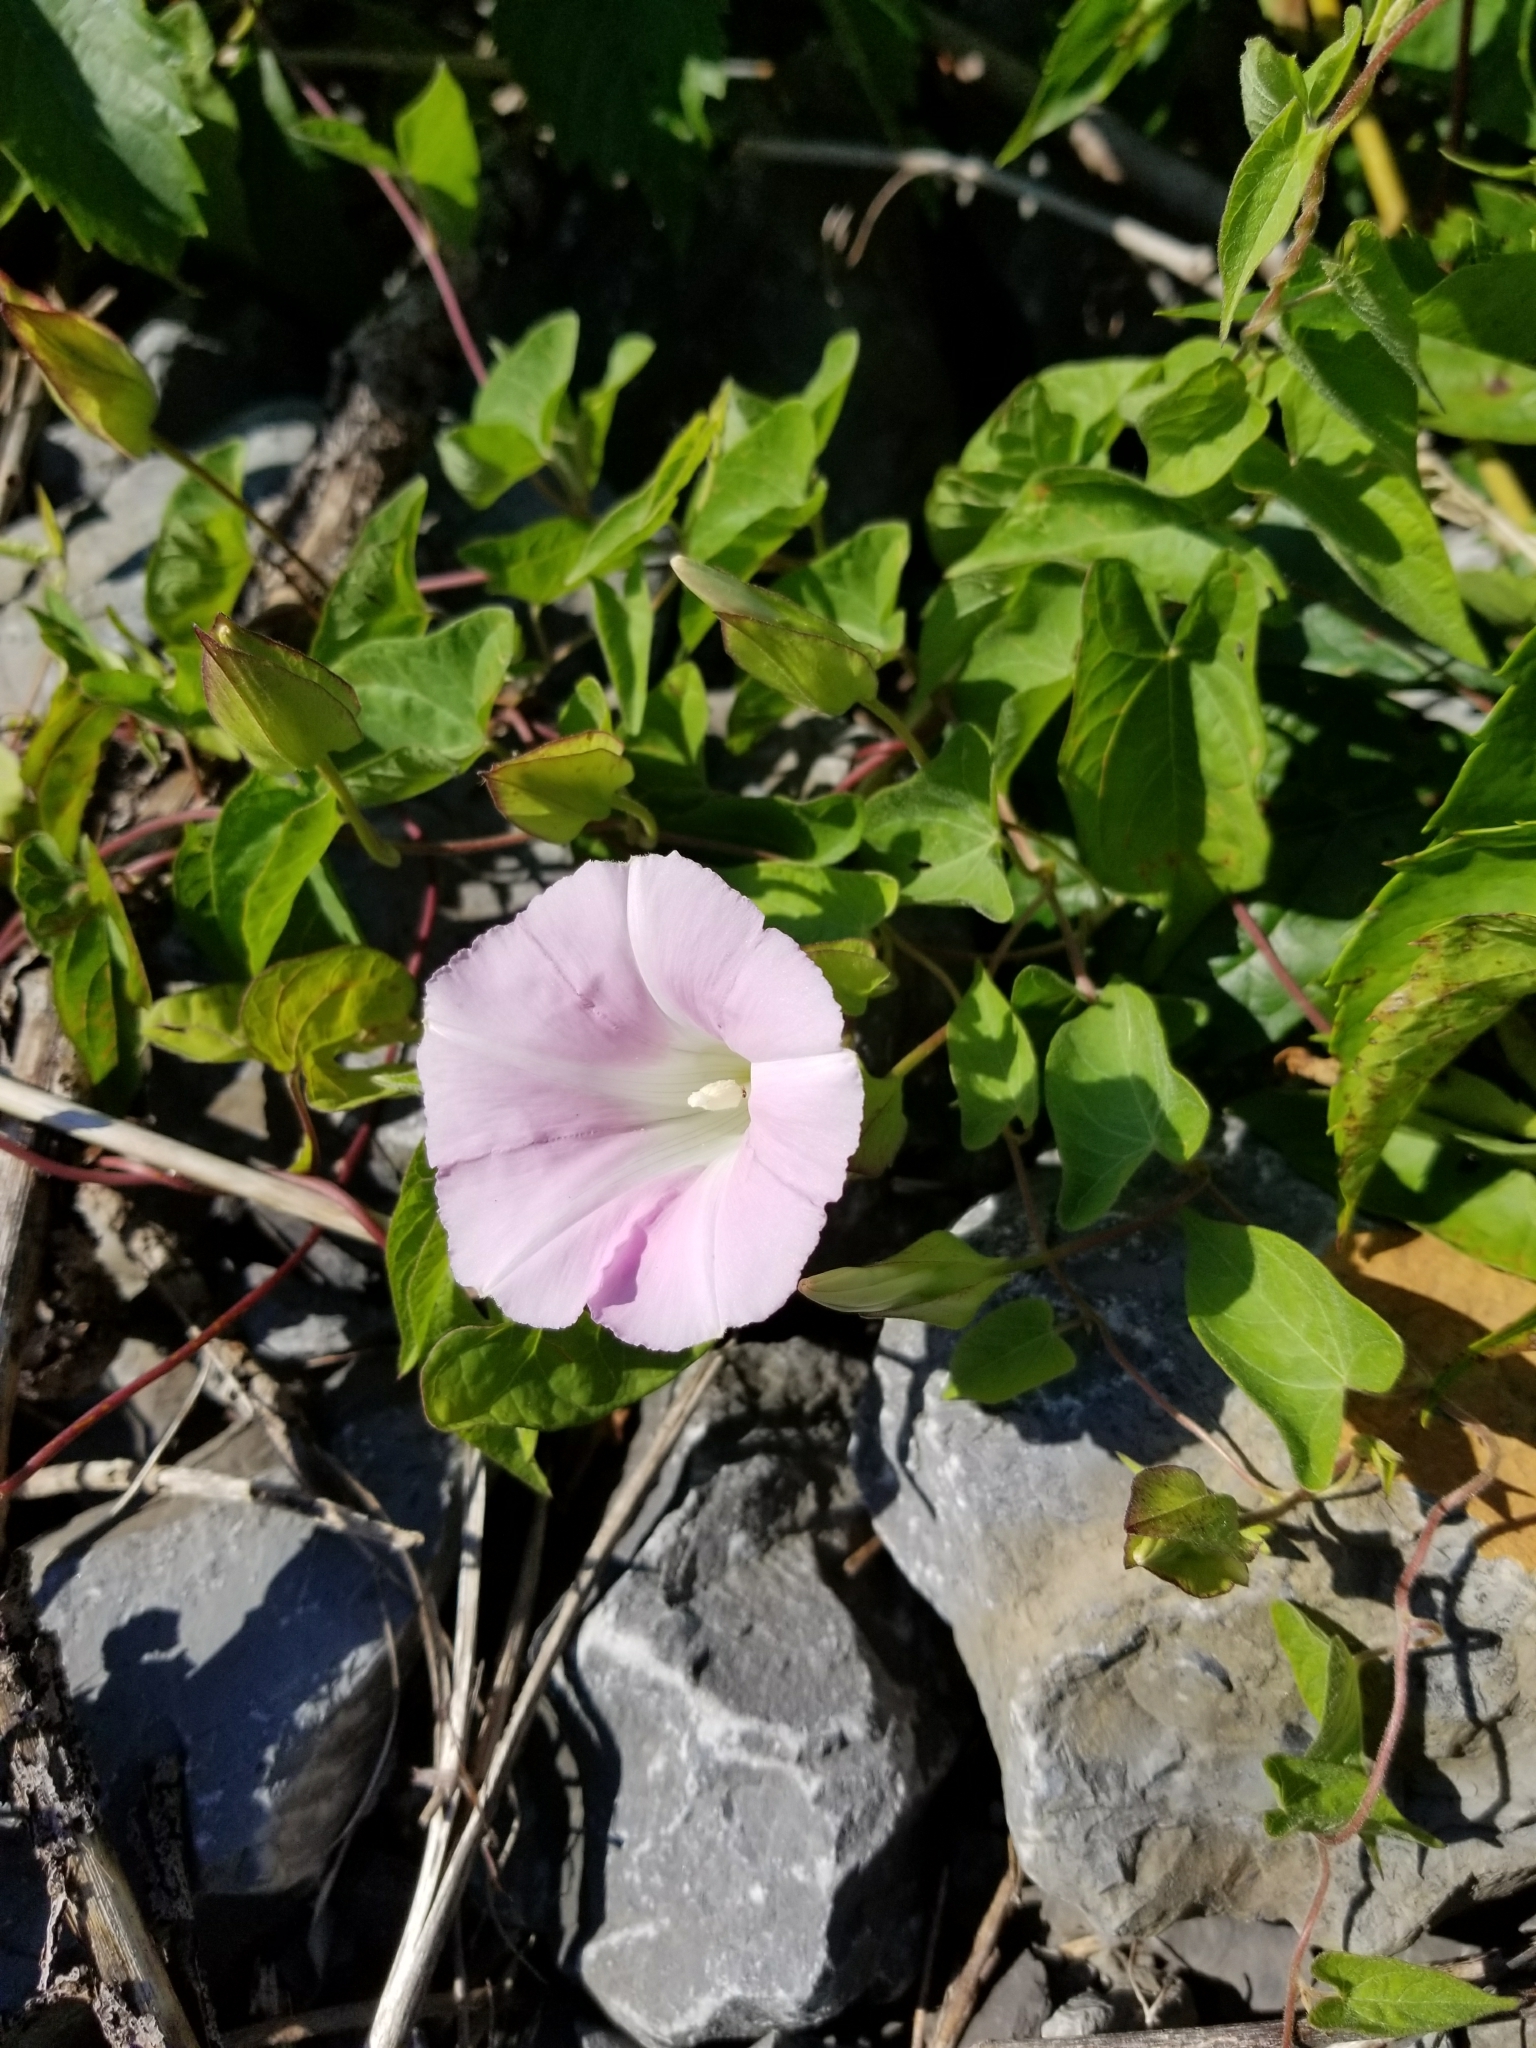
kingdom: Plantae
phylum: Tracheophyta
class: Magnoliopsida
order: Solanales
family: Convolvulaceae
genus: Calystegia
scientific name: Calystegia sepium
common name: Hedge bindweed
